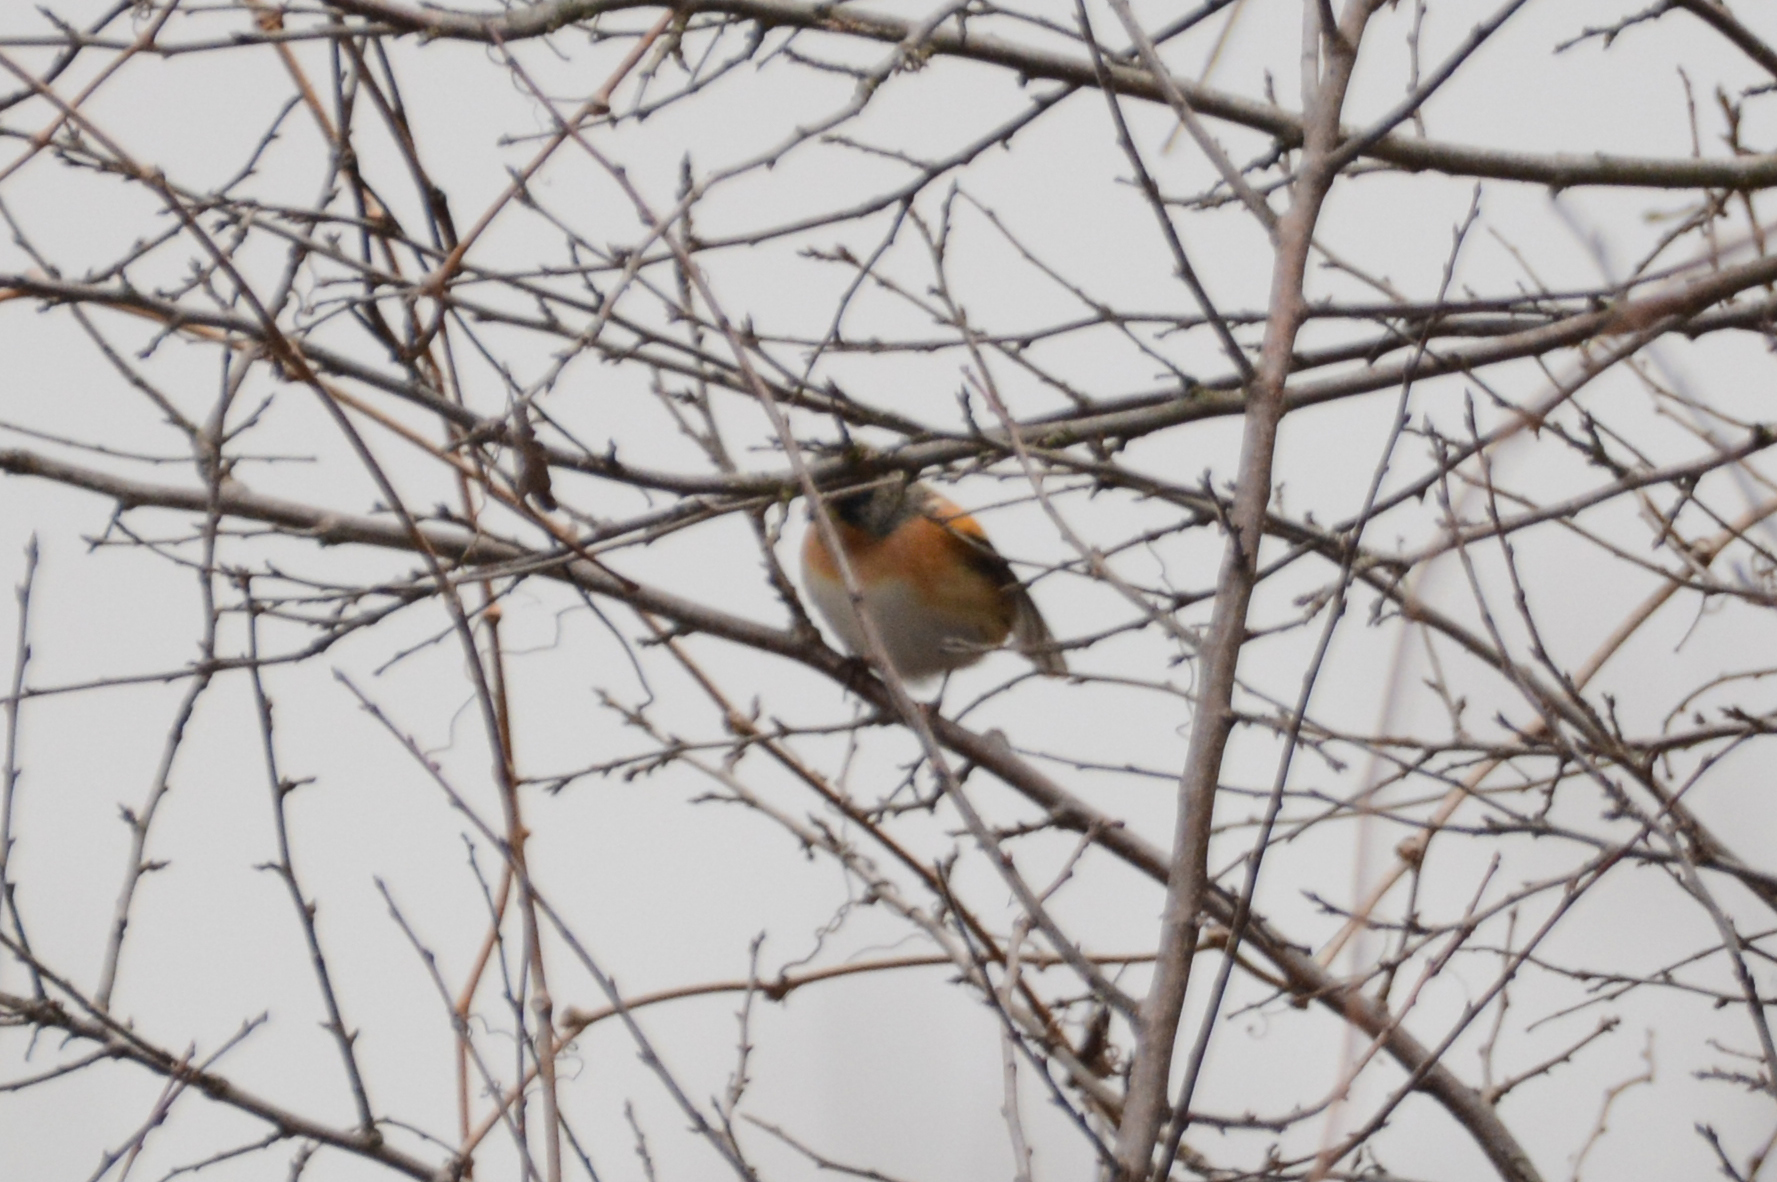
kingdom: Animalia
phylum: Chordata
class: Aves
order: Passeriformes
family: Fringillidae
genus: Fringilla
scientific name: Fringilla montifringilla
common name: Brambling
